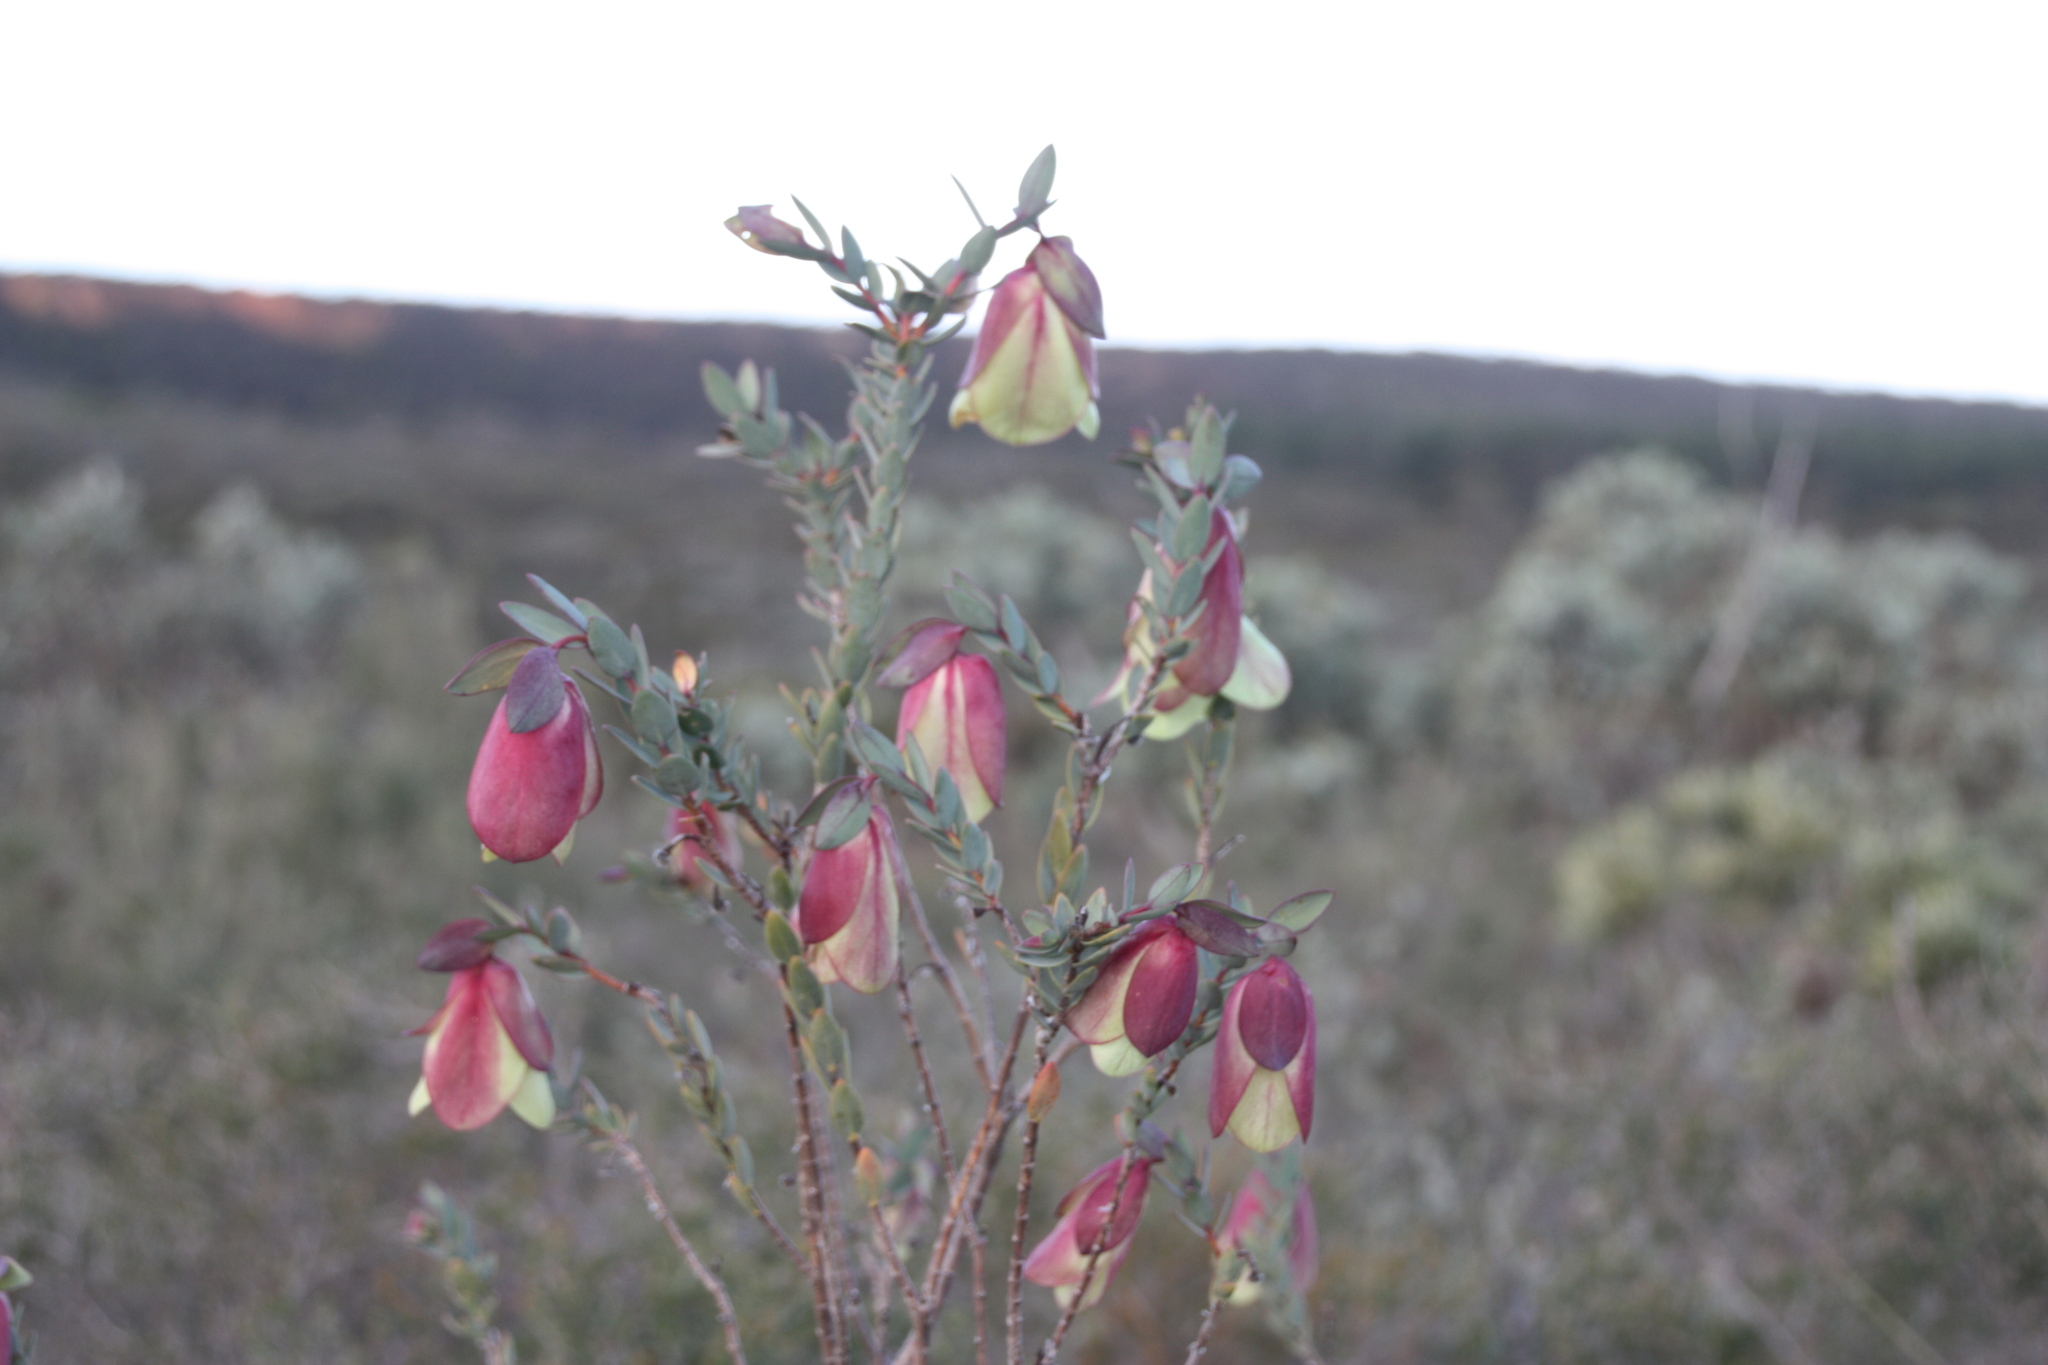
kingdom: Plantae
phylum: Tracheophyta
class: Magnoliopsida
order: Malvales
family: Thymelaeaceae
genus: Pimelea
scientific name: Pimelea physodes
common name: Qualup-bell
